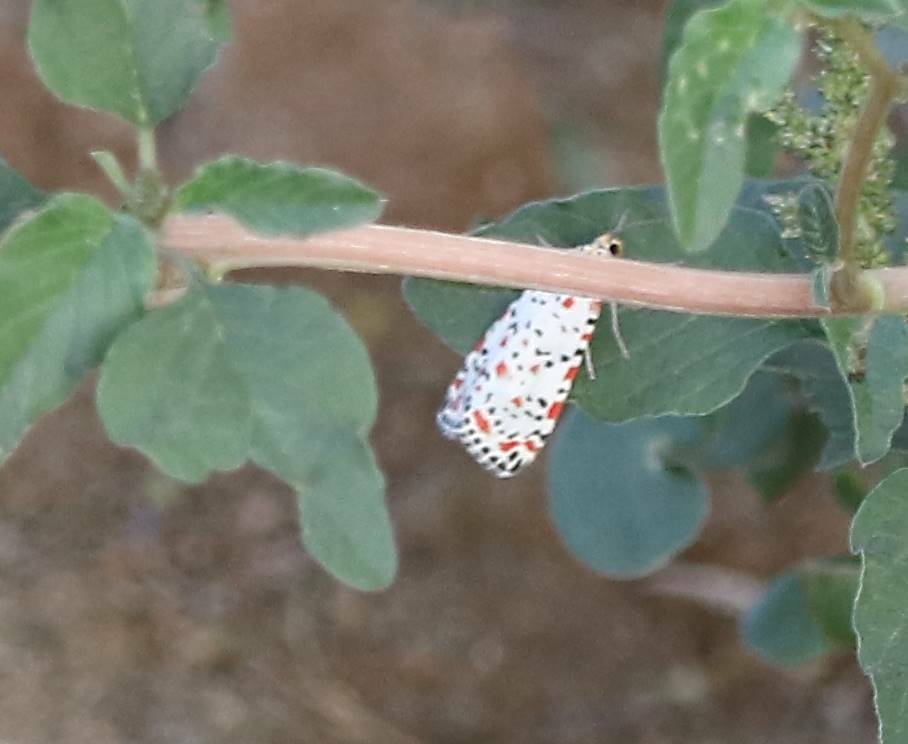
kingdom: Animalia
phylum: Arthropoda
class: Insecta
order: Lepidoptera
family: Erebidae
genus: Utetheisa
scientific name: Utetheisa pulchella
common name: Crimson speckled
